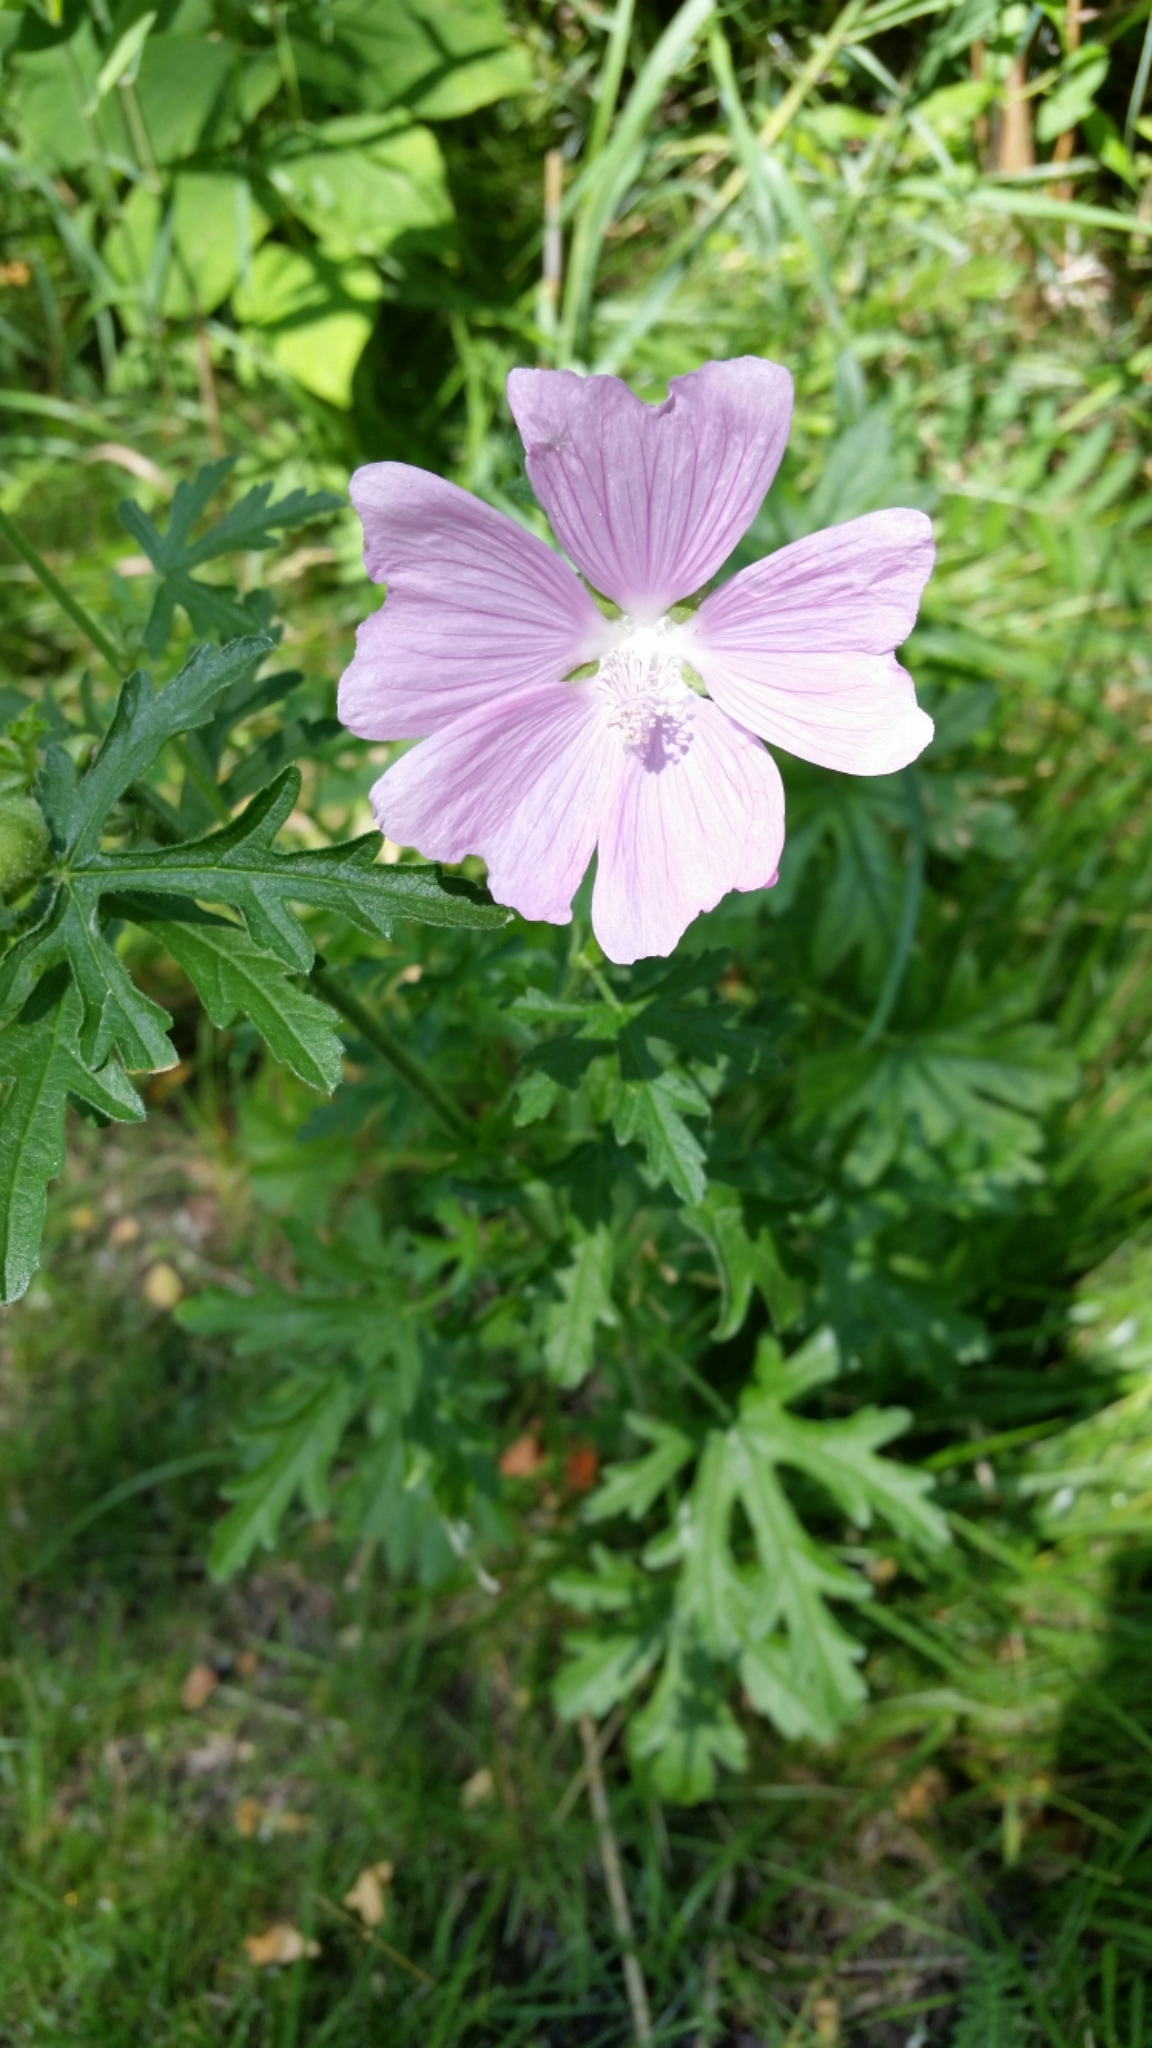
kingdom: Plantae
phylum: Tracheophyta
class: Magnoliopsida
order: Malvales
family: Malvaceae
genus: Malva
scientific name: Malva moschata
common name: Musk mallow
